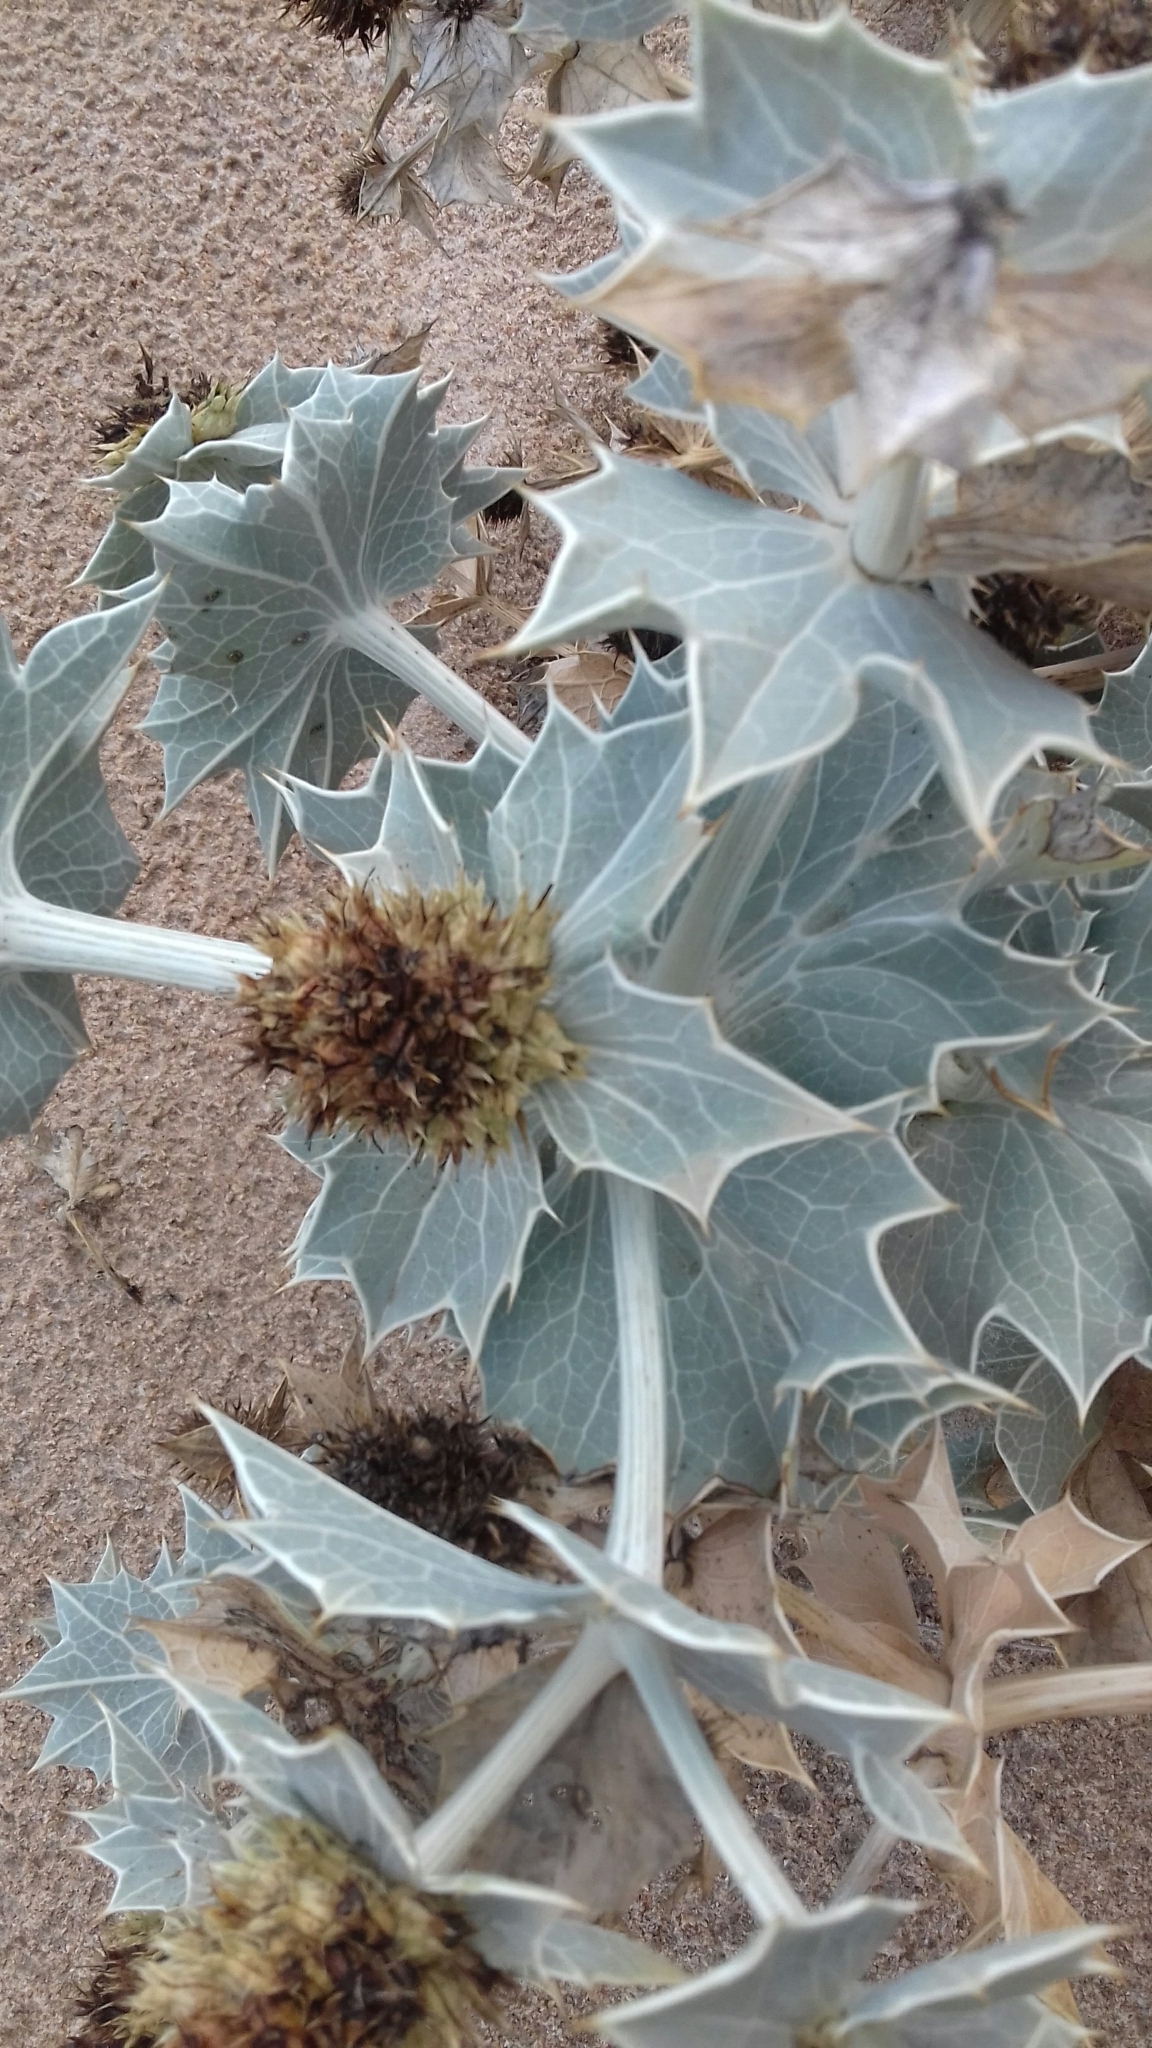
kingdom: Plantae
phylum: Tracheophyta
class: Magnoliopsida
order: Apiales
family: Apiaceae
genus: Eryngium
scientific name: Eryngium maritimum
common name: Sea-holly
